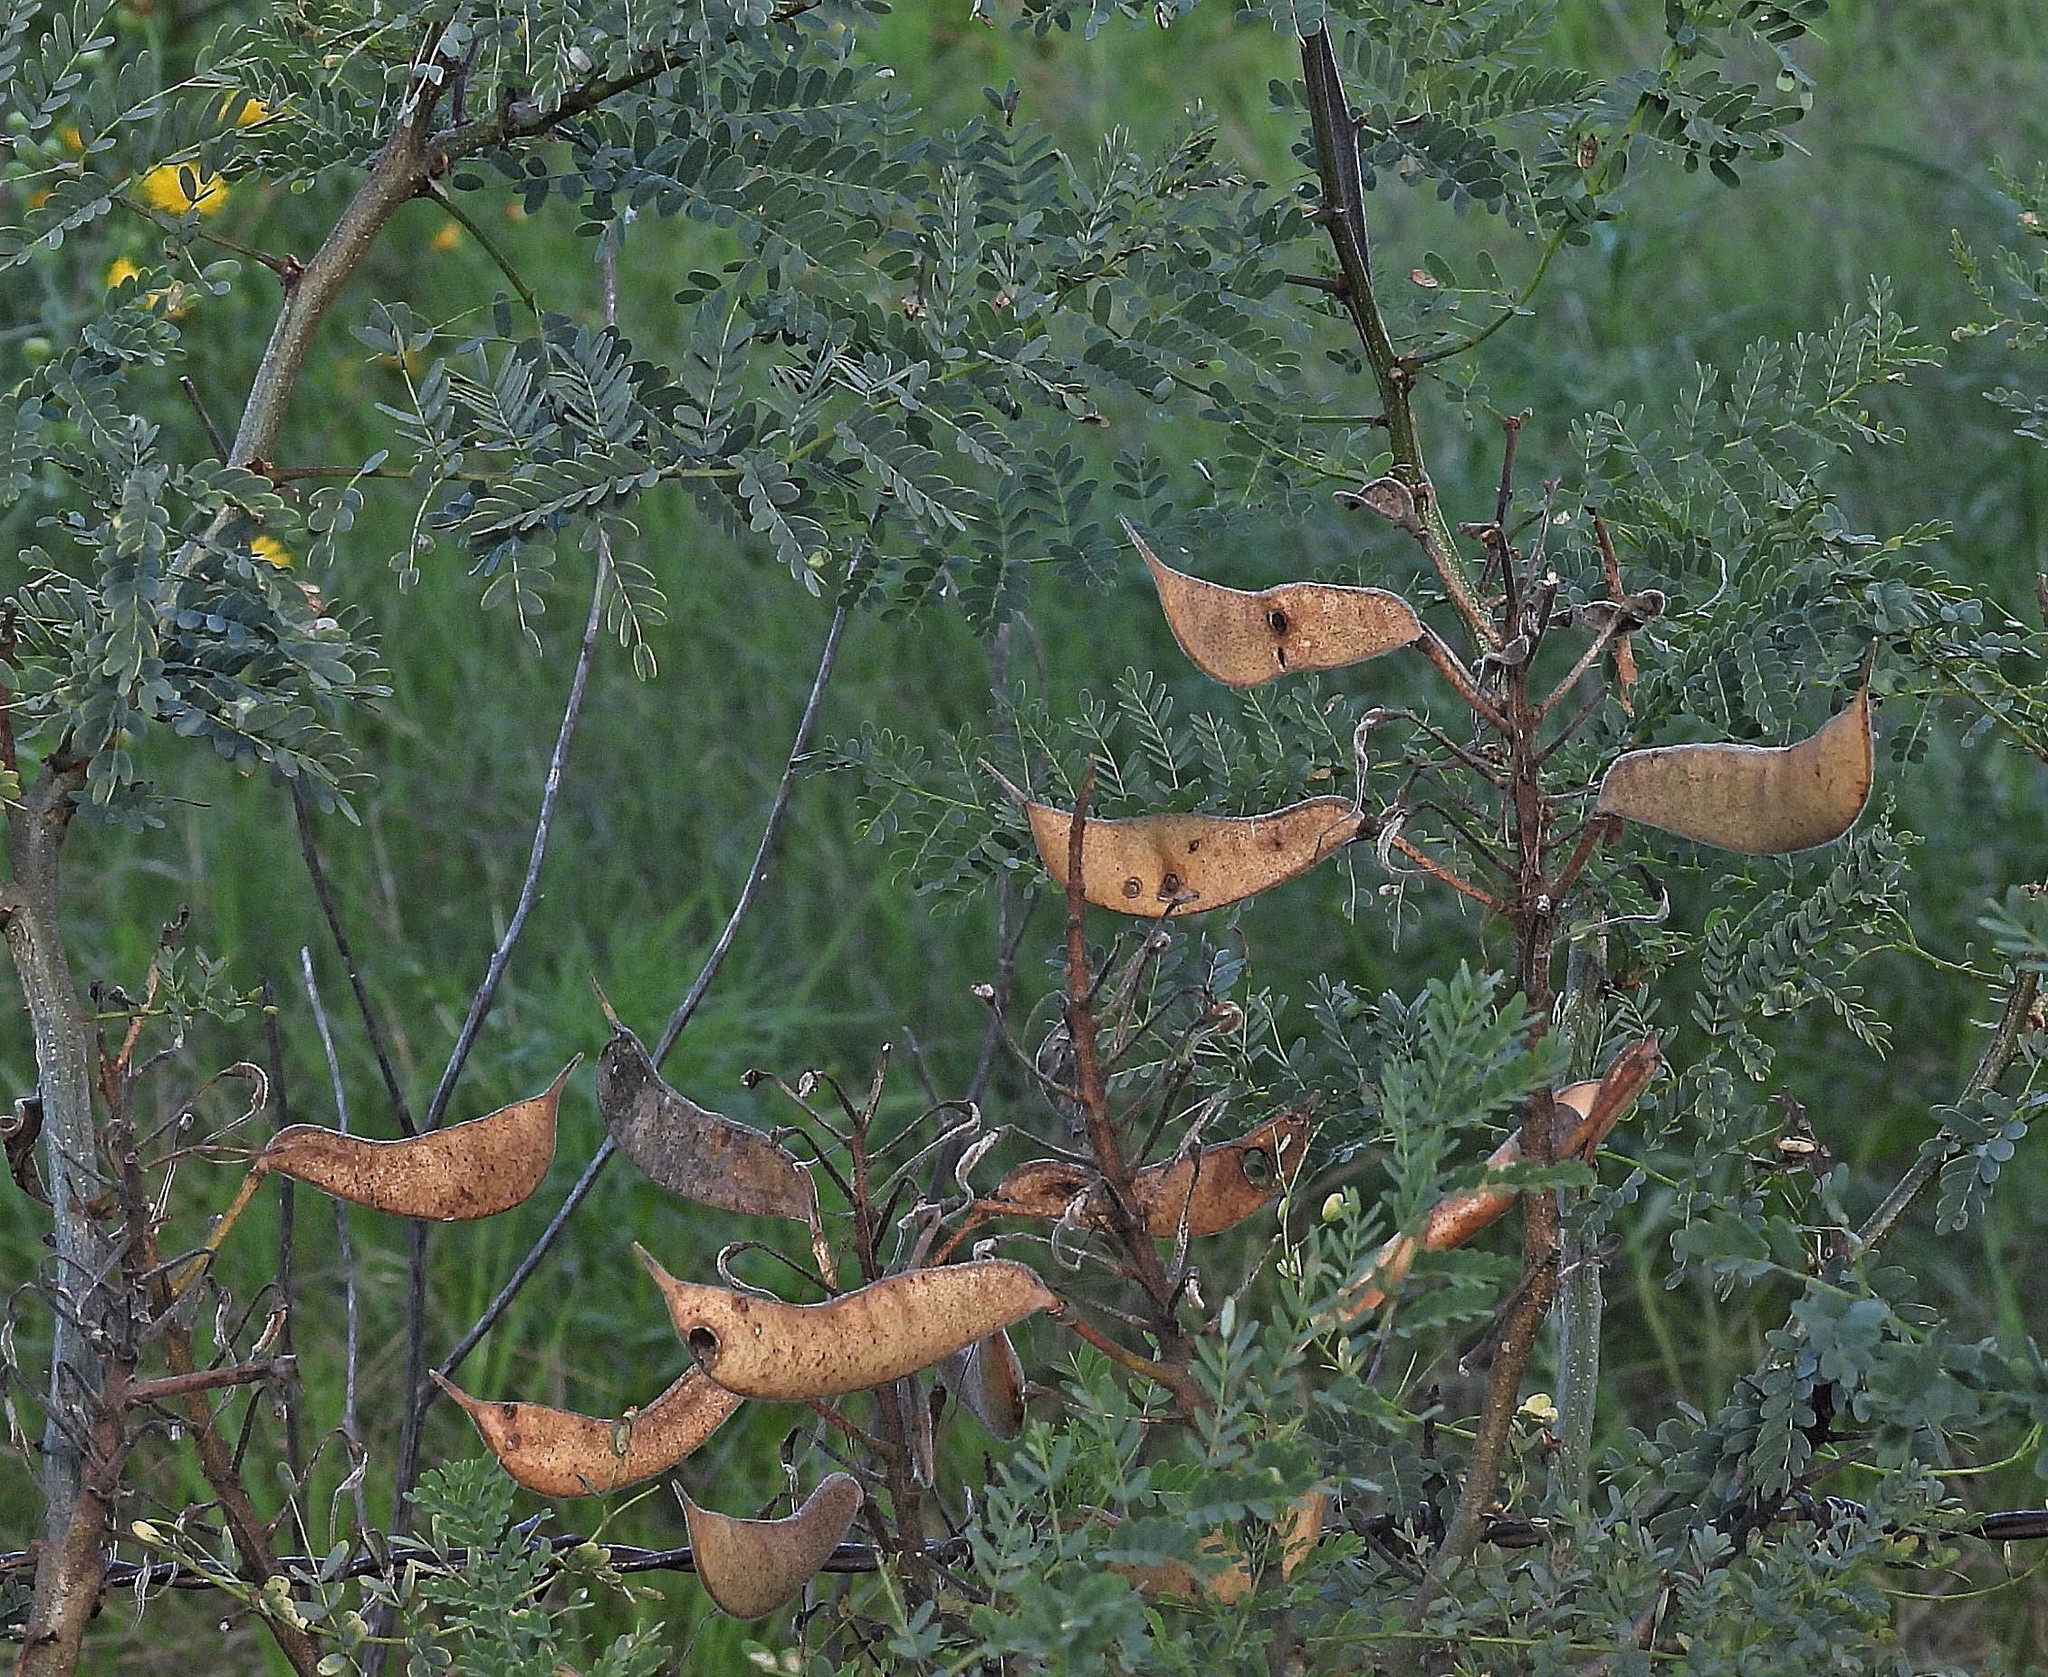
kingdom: Plantae
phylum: Tracheophyta
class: Magnoliopsida
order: Fabales
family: Fabaceae
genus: Erythrostemon
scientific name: Erythrostemon gilliesii
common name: Bird-of-paradise shrub
